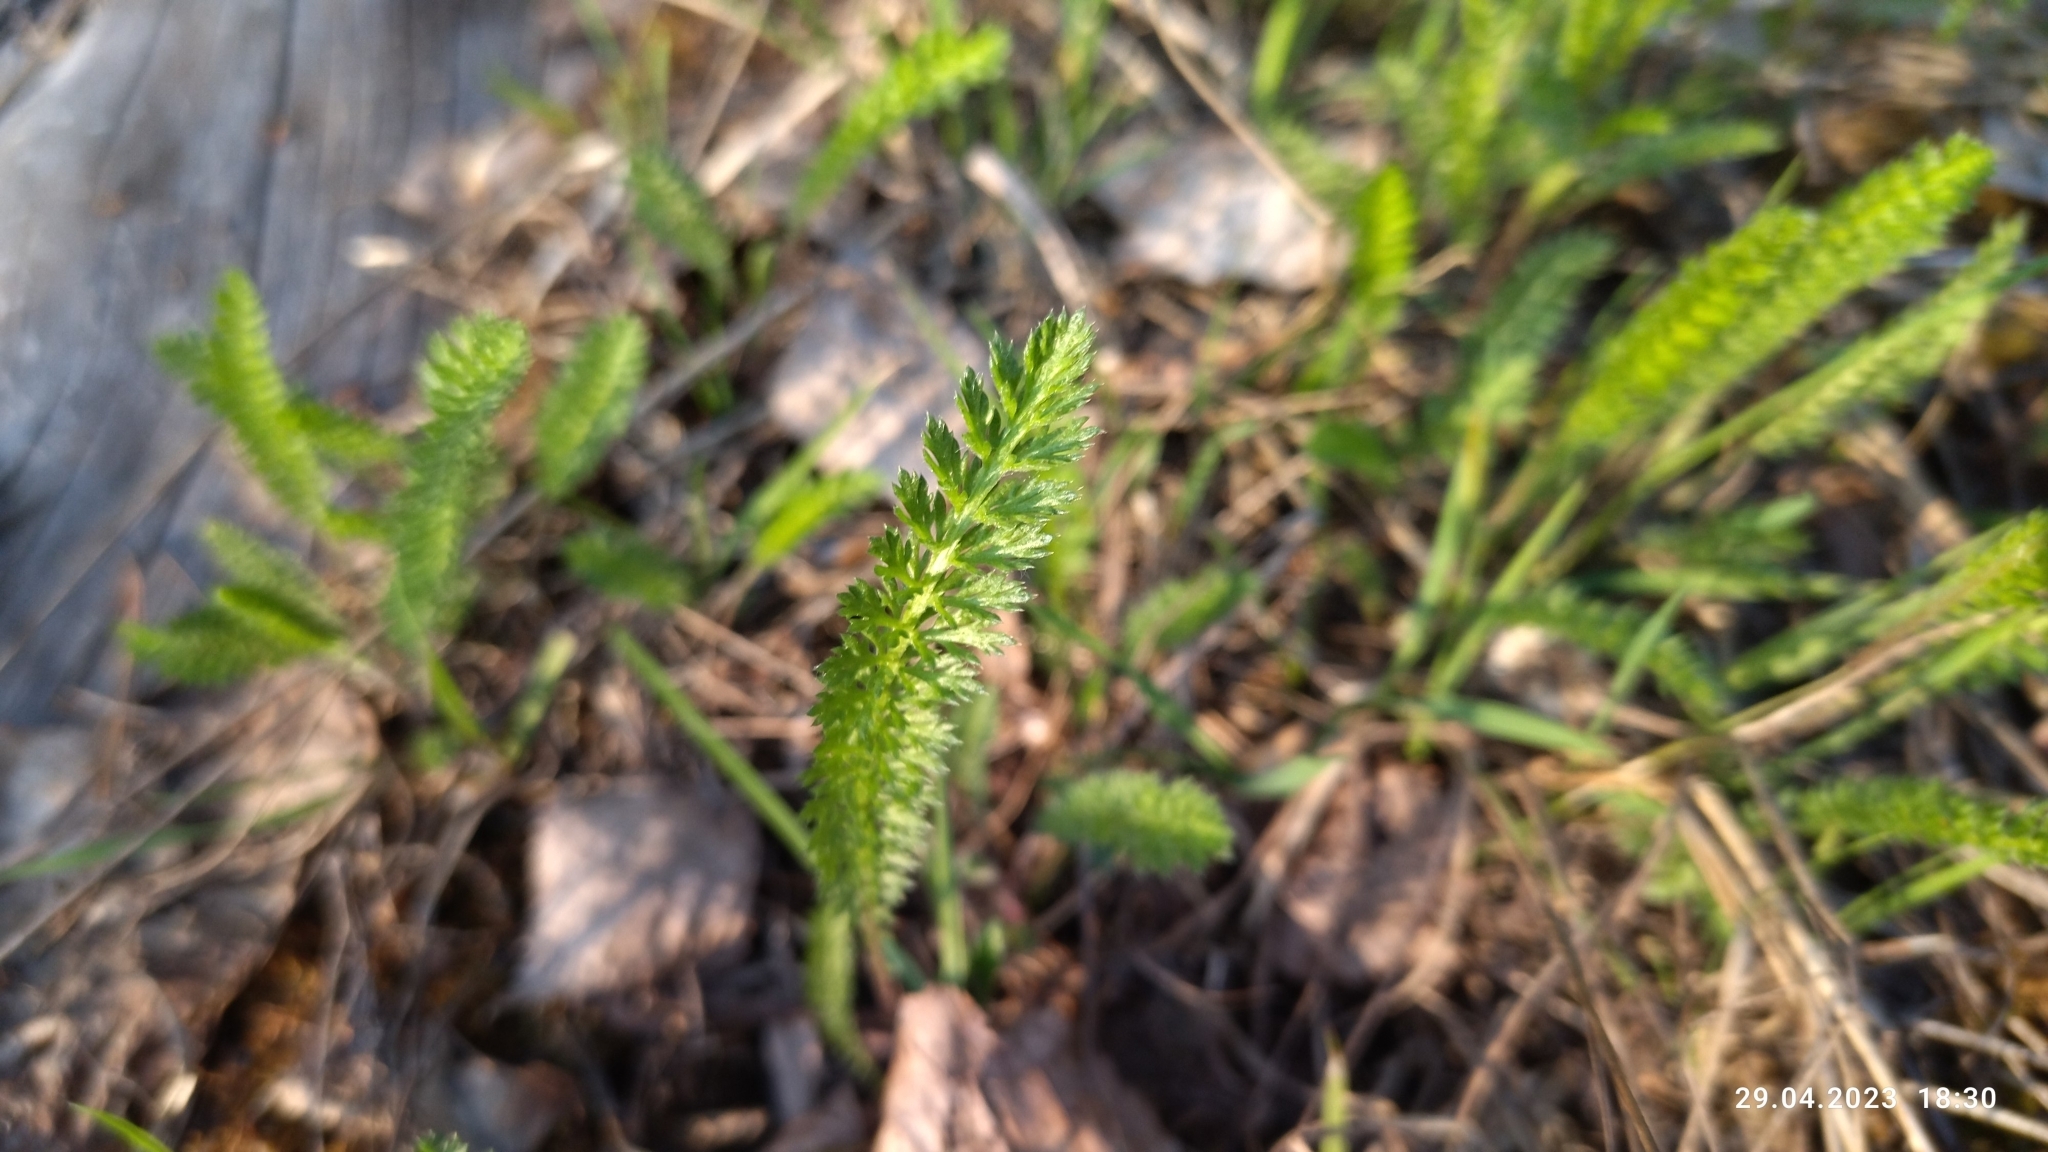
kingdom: Plantae
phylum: Tracheophyta
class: Magnoliopsida
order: Asterales
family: Asteraceae
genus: Achillea
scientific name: Achillea millefolium
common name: Yarrow
